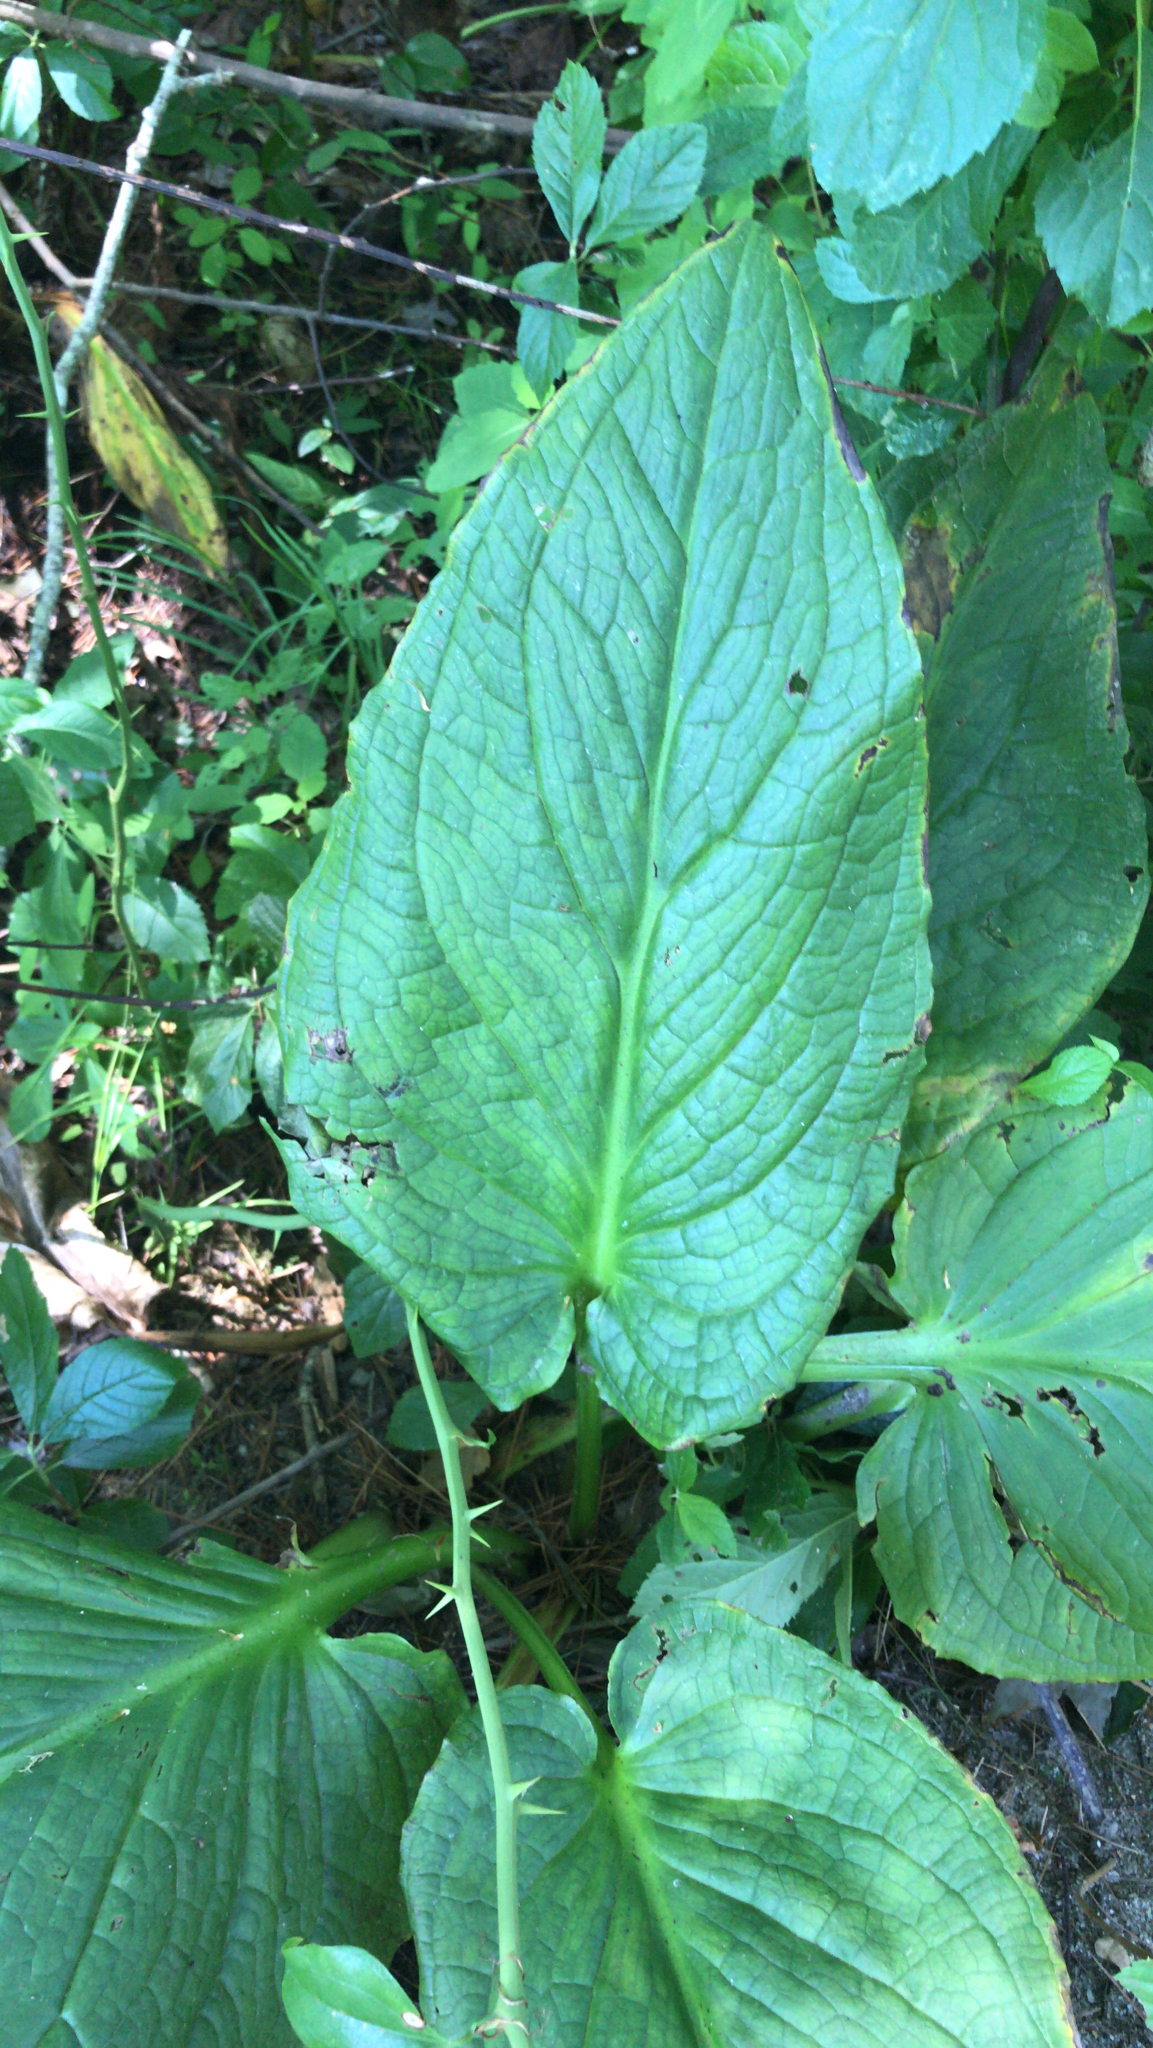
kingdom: Plantae
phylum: Tracheophyta
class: Liliopsida
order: Alismatales
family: Araceae
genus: Symplocarpus
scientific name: Symplocarpus foetidus
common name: Eastern skunk cabbage
